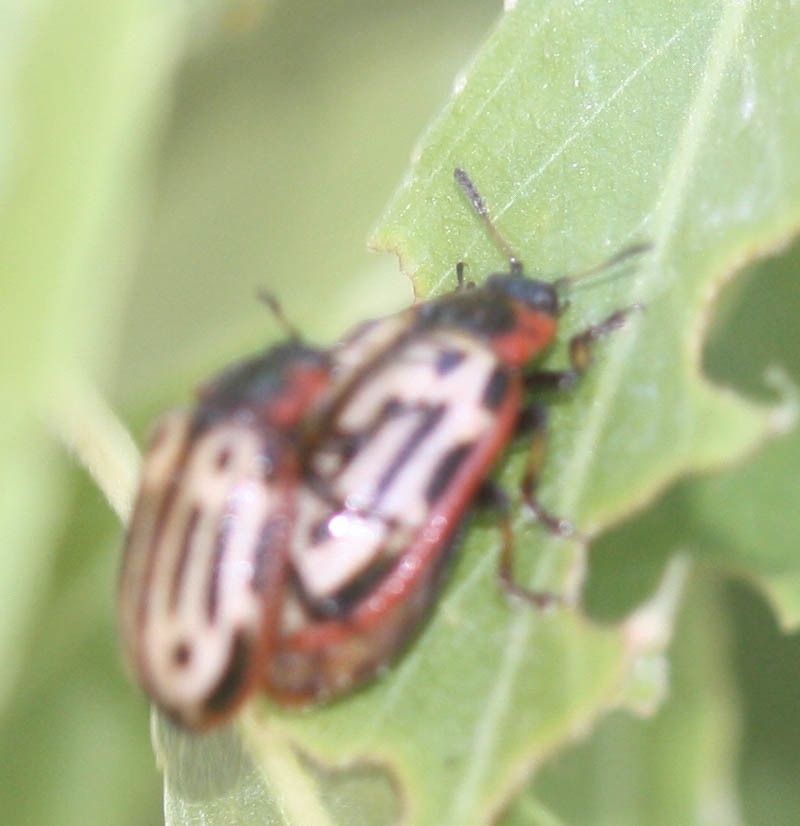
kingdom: Animalia
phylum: Arthropoda
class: Insecta
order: Coleoptera
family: Chrysomelidae
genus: Aethiopocassis
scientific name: Aethiopocassis scripta
